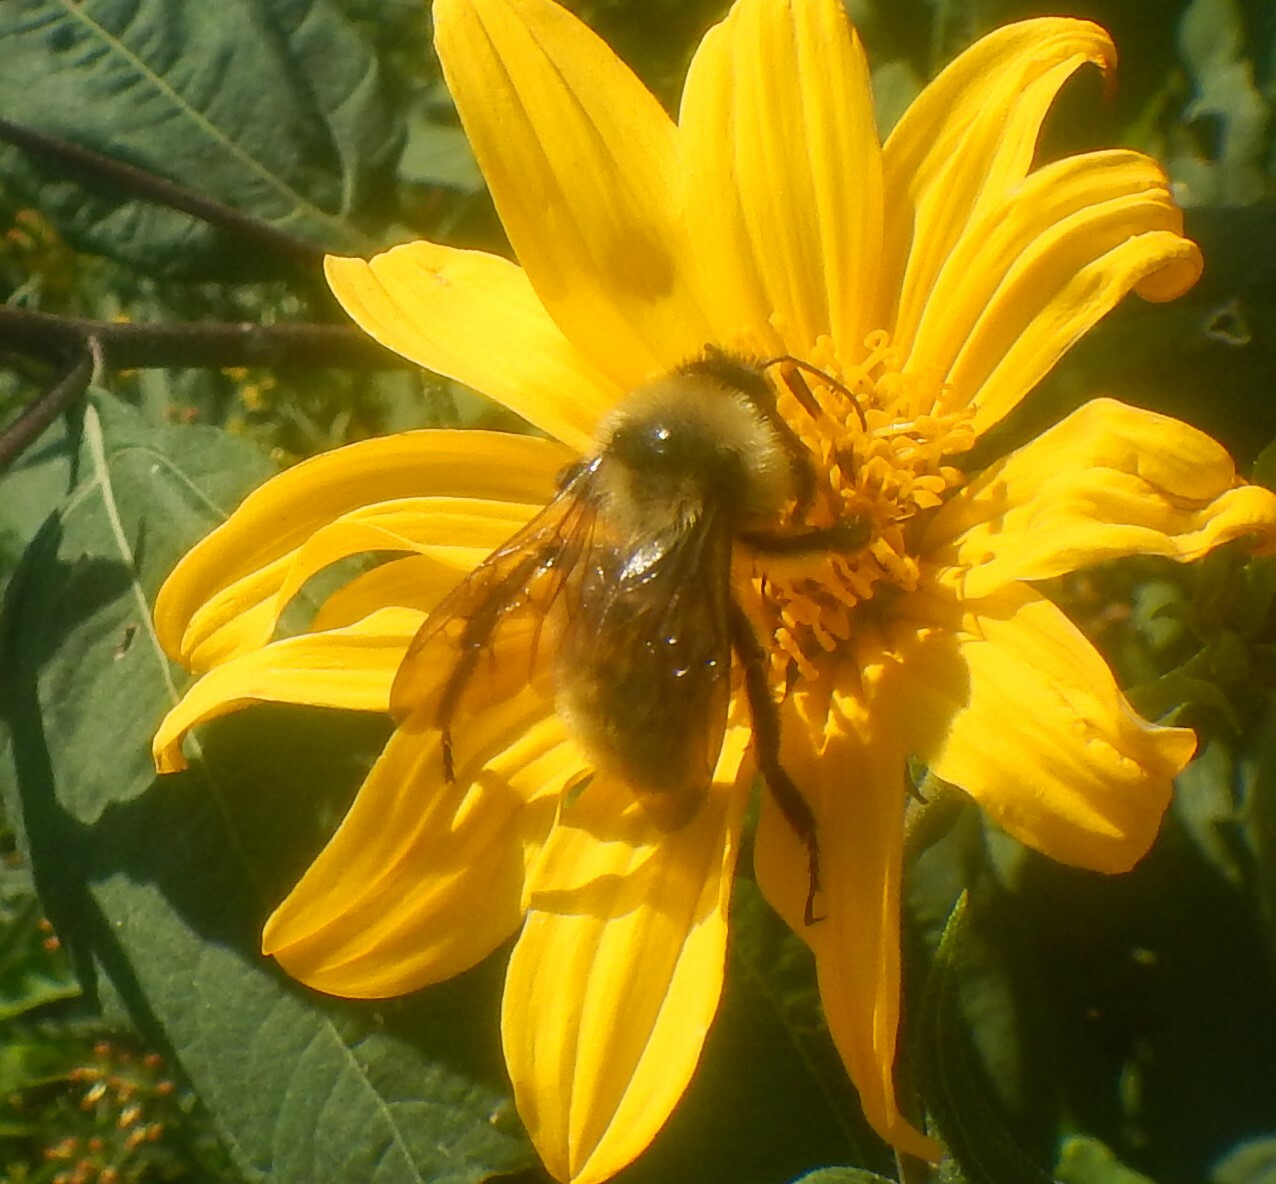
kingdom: Animalia
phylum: Arthropoda
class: Insecta
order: Hymenoptera
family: Apidae
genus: Bombus
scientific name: Bombus pensylvanicus
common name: Bumble bee
